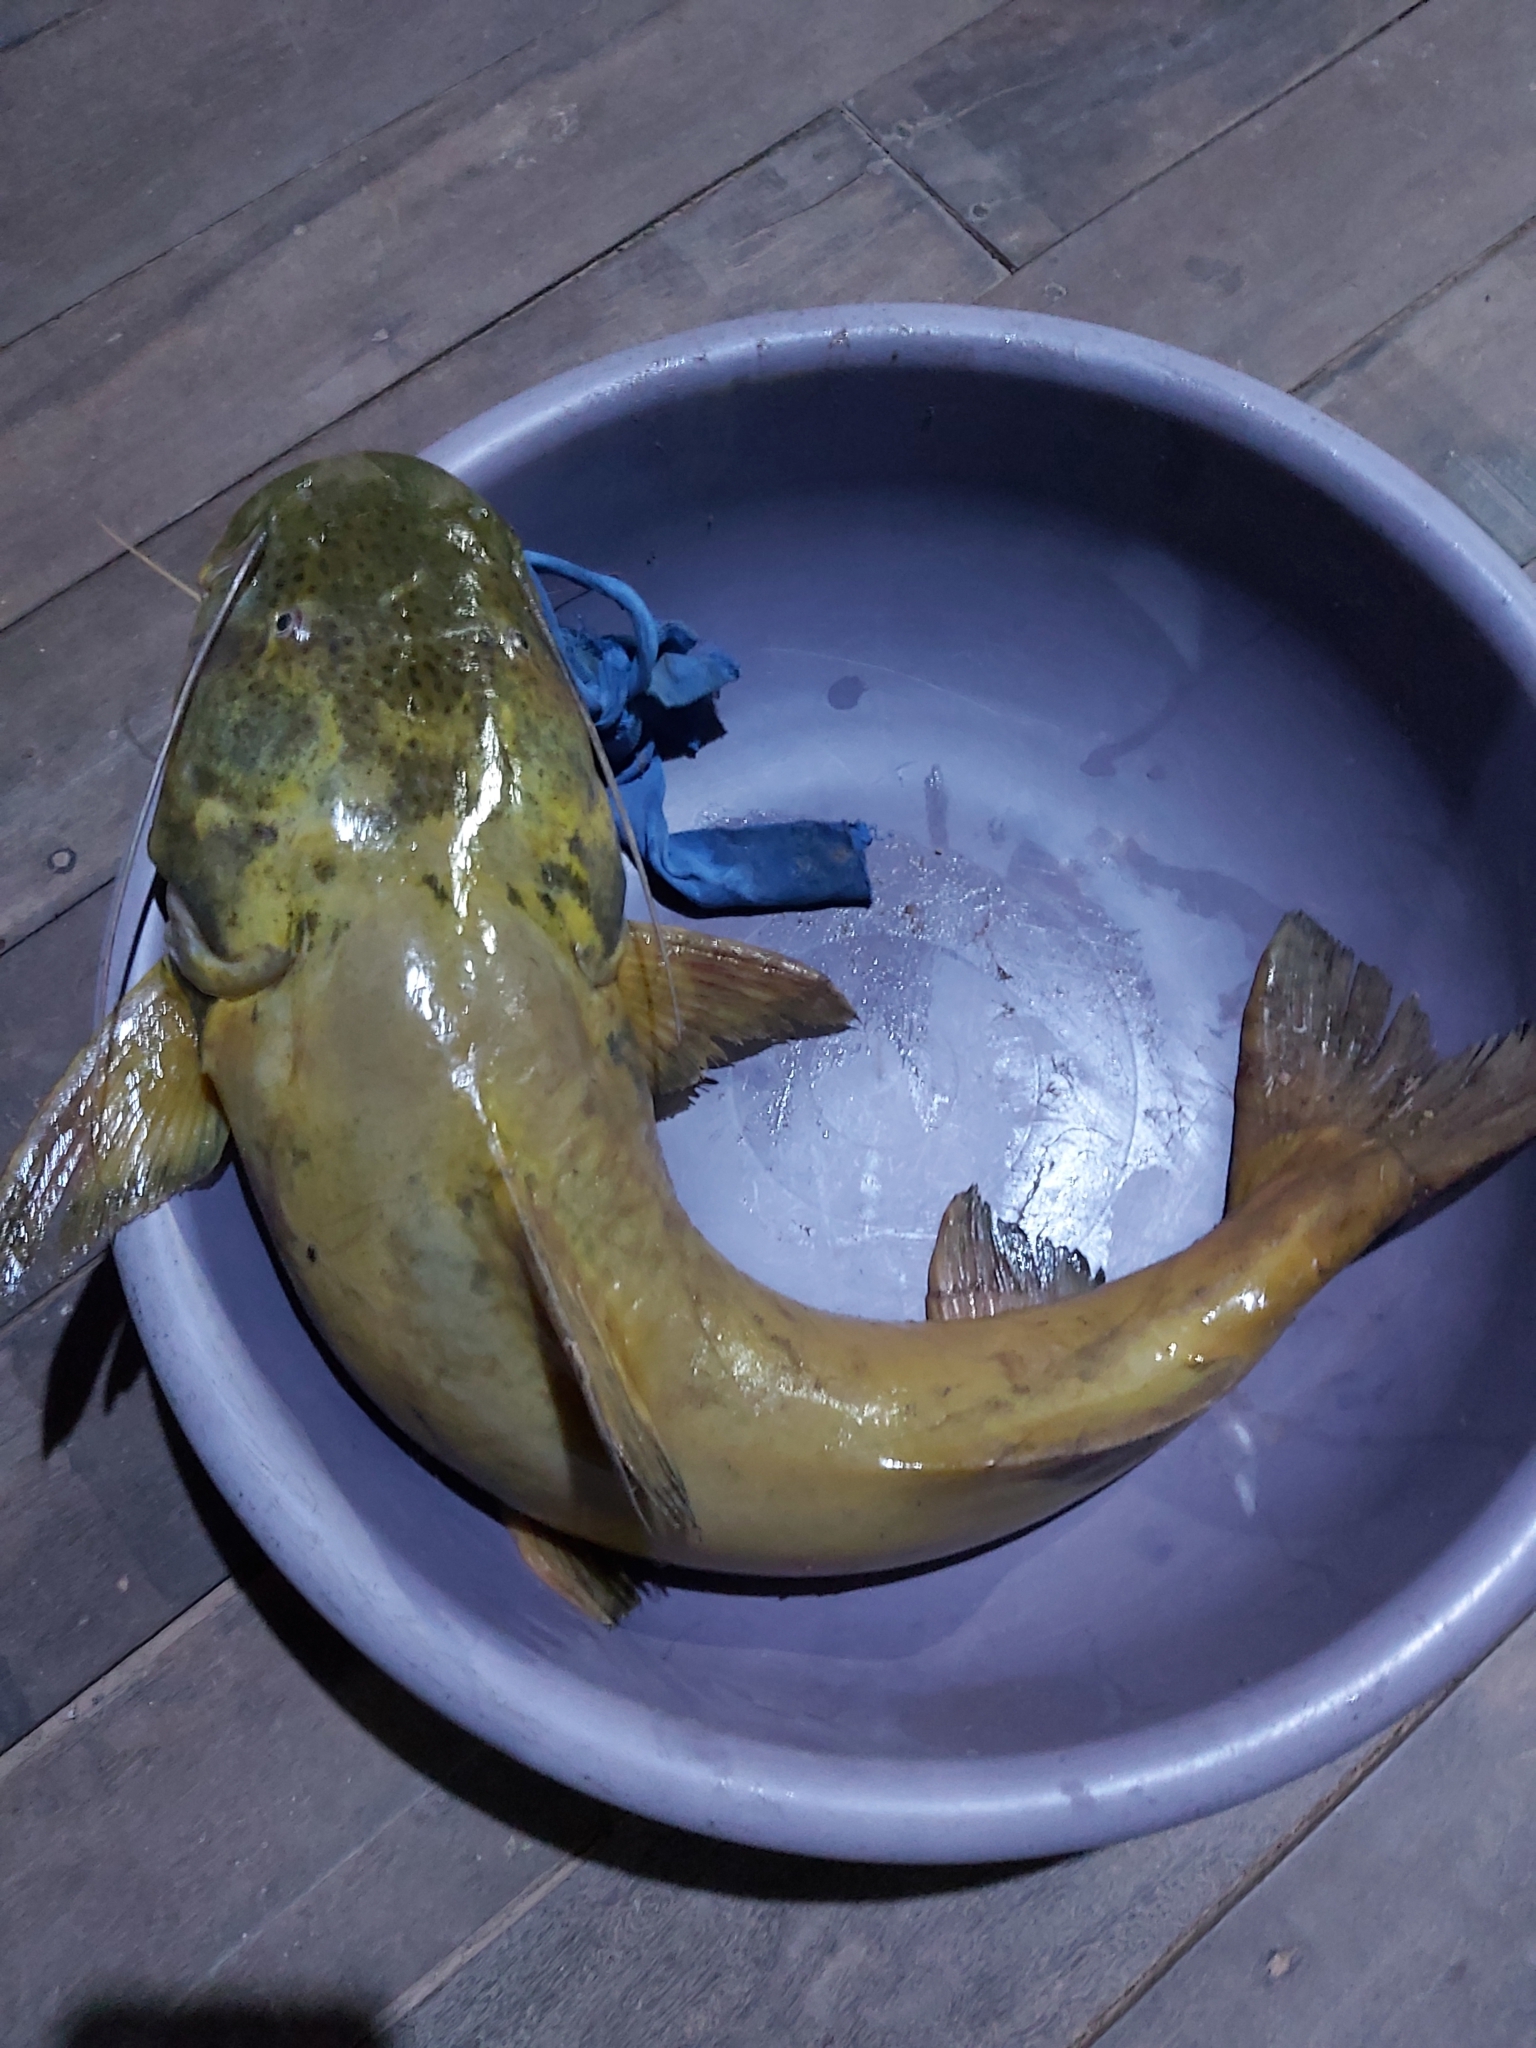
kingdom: Animalia
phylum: Chordata
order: Siluriformes
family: Pimelodidae
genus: Zungaro
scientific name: Zungaro zungaro
